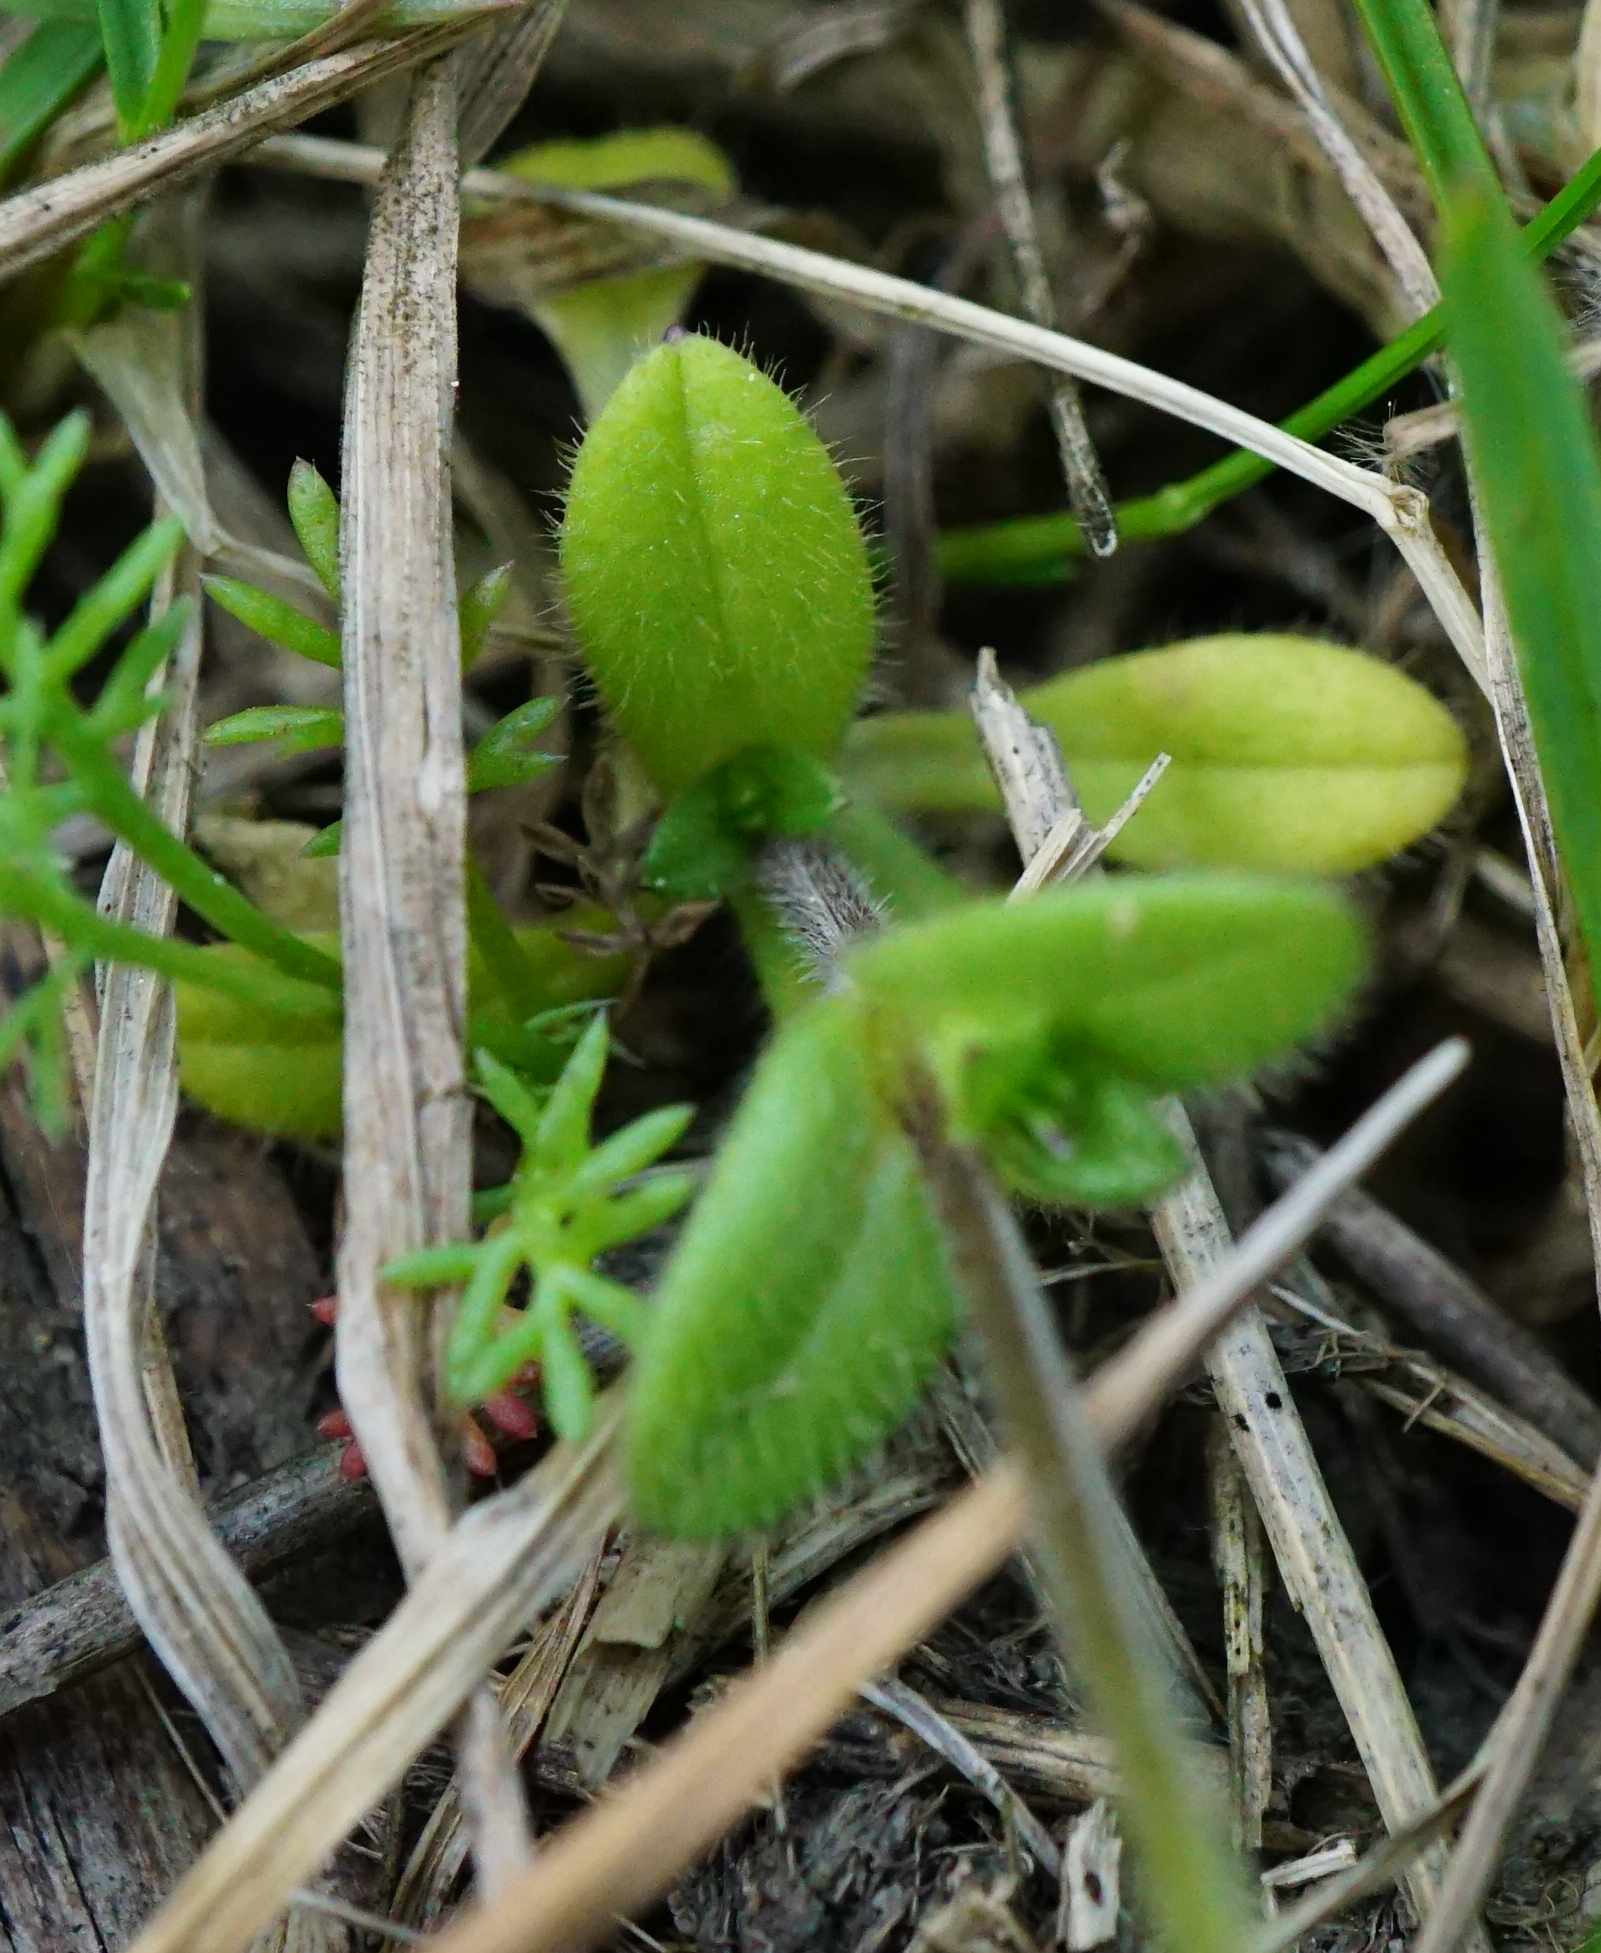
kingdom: Plantae
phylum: Tracheophyta
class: Magnoliopsida
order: Caryophyllales
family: Caryophyllaceae
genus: Dichodon
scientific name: Dichodon viscidum
